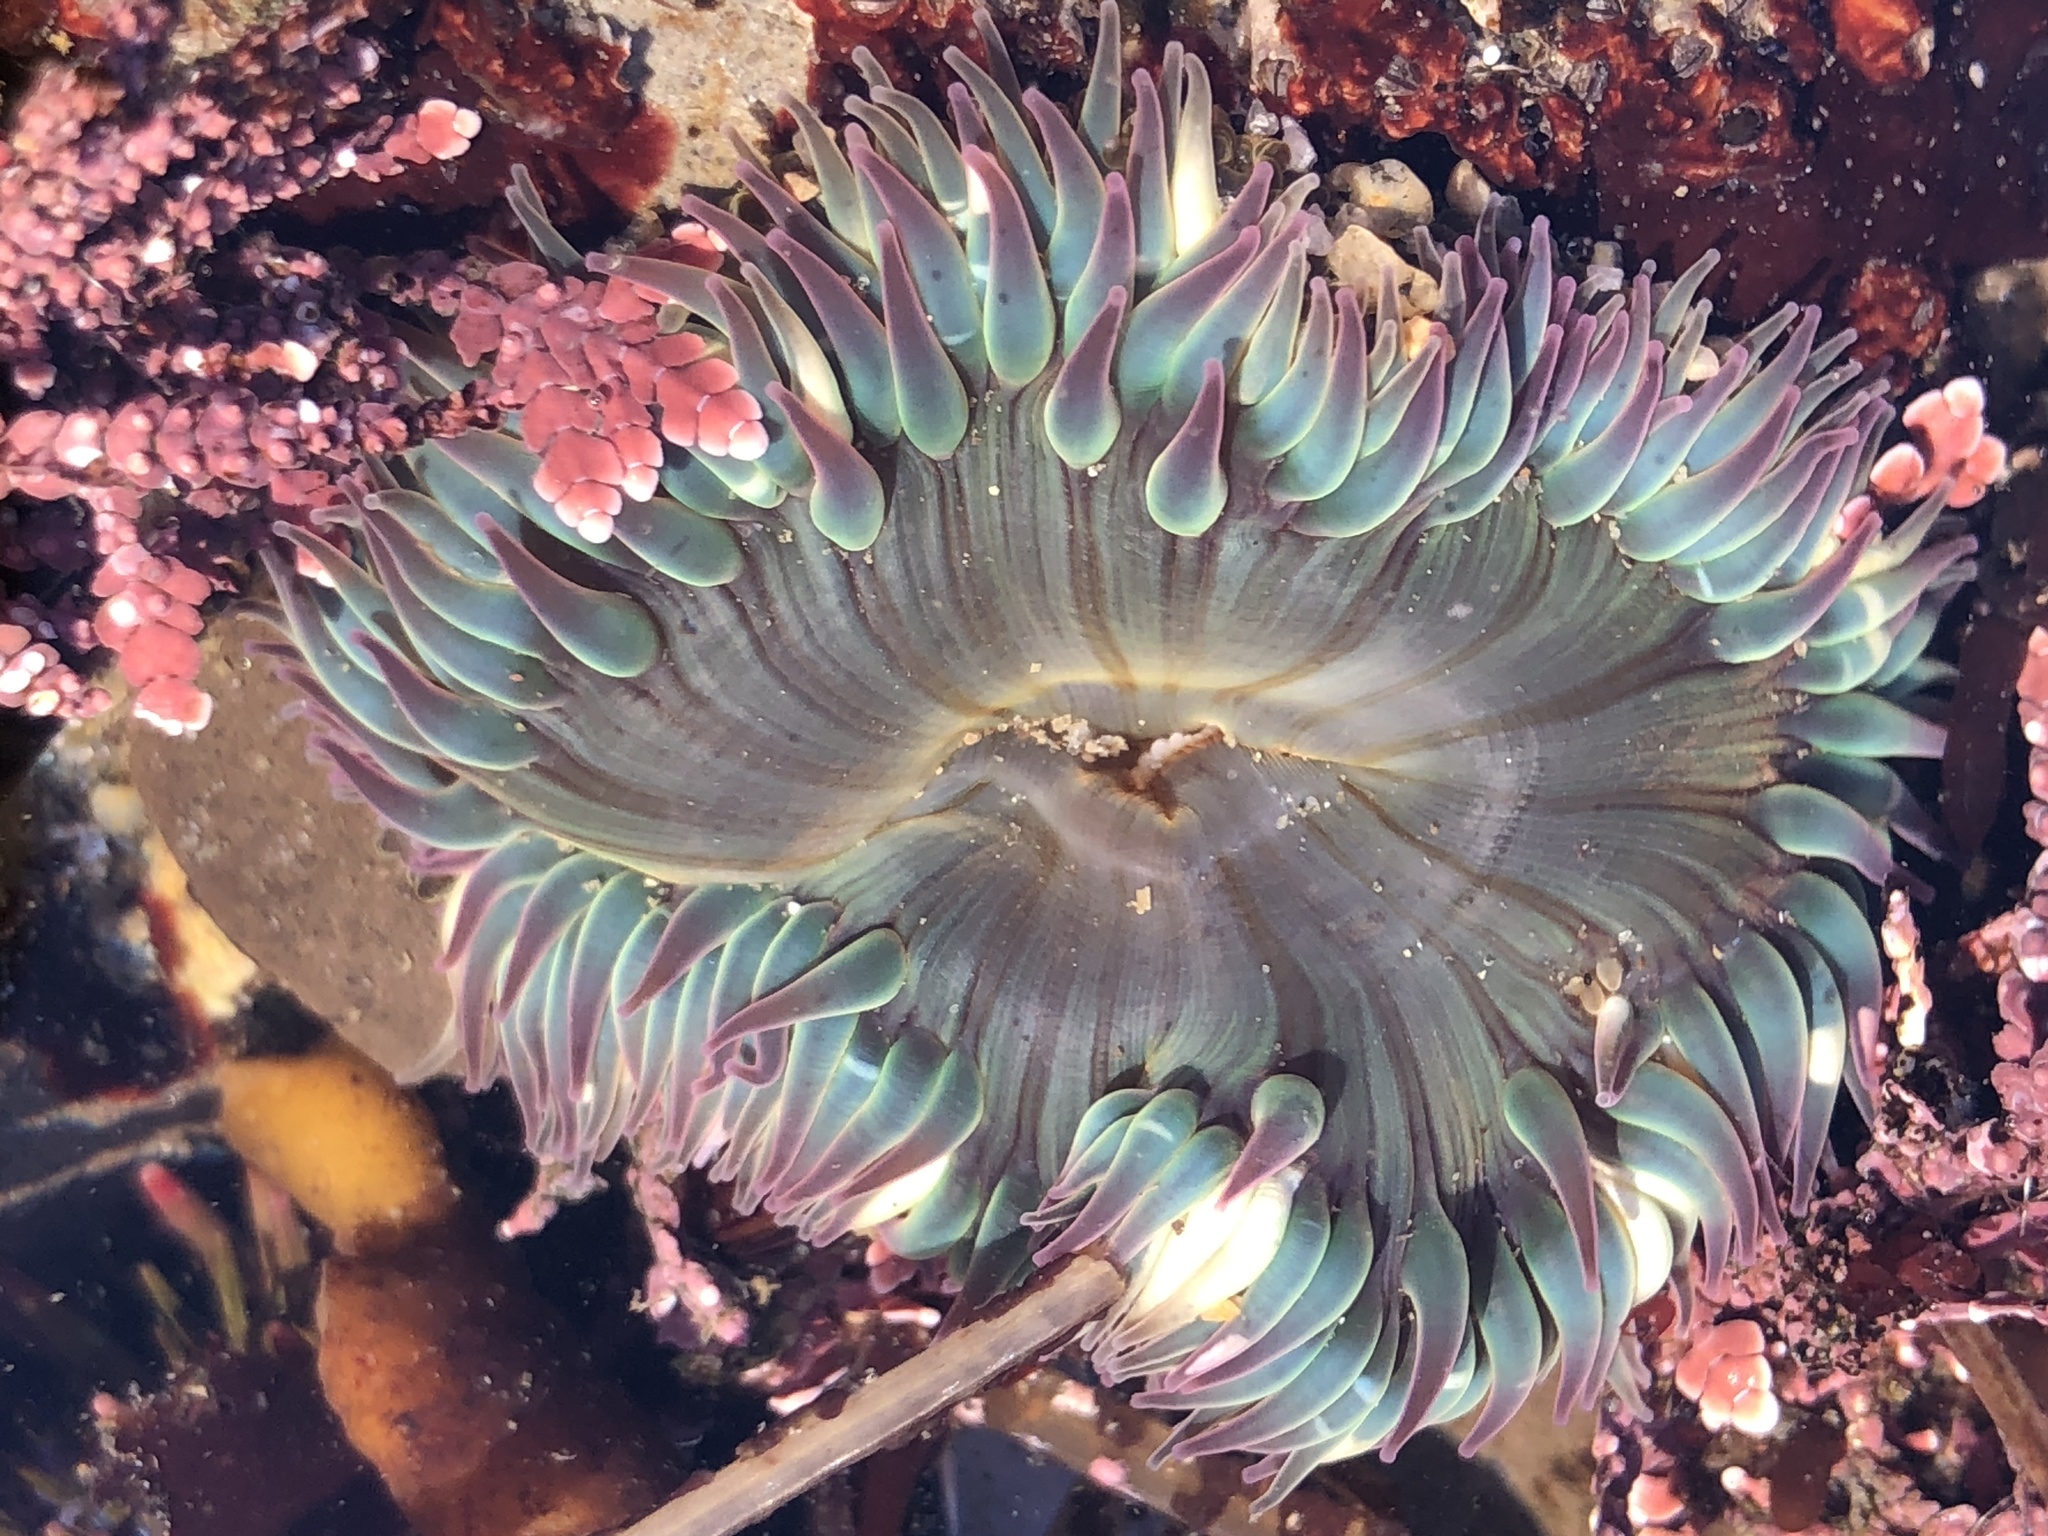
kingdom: Animalia
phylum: Cnidaria
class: Anthozoa
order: Actiniaria
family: Actiniidae
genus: Anthopleura
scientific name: Anthopleura sola
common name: Sun anemone
